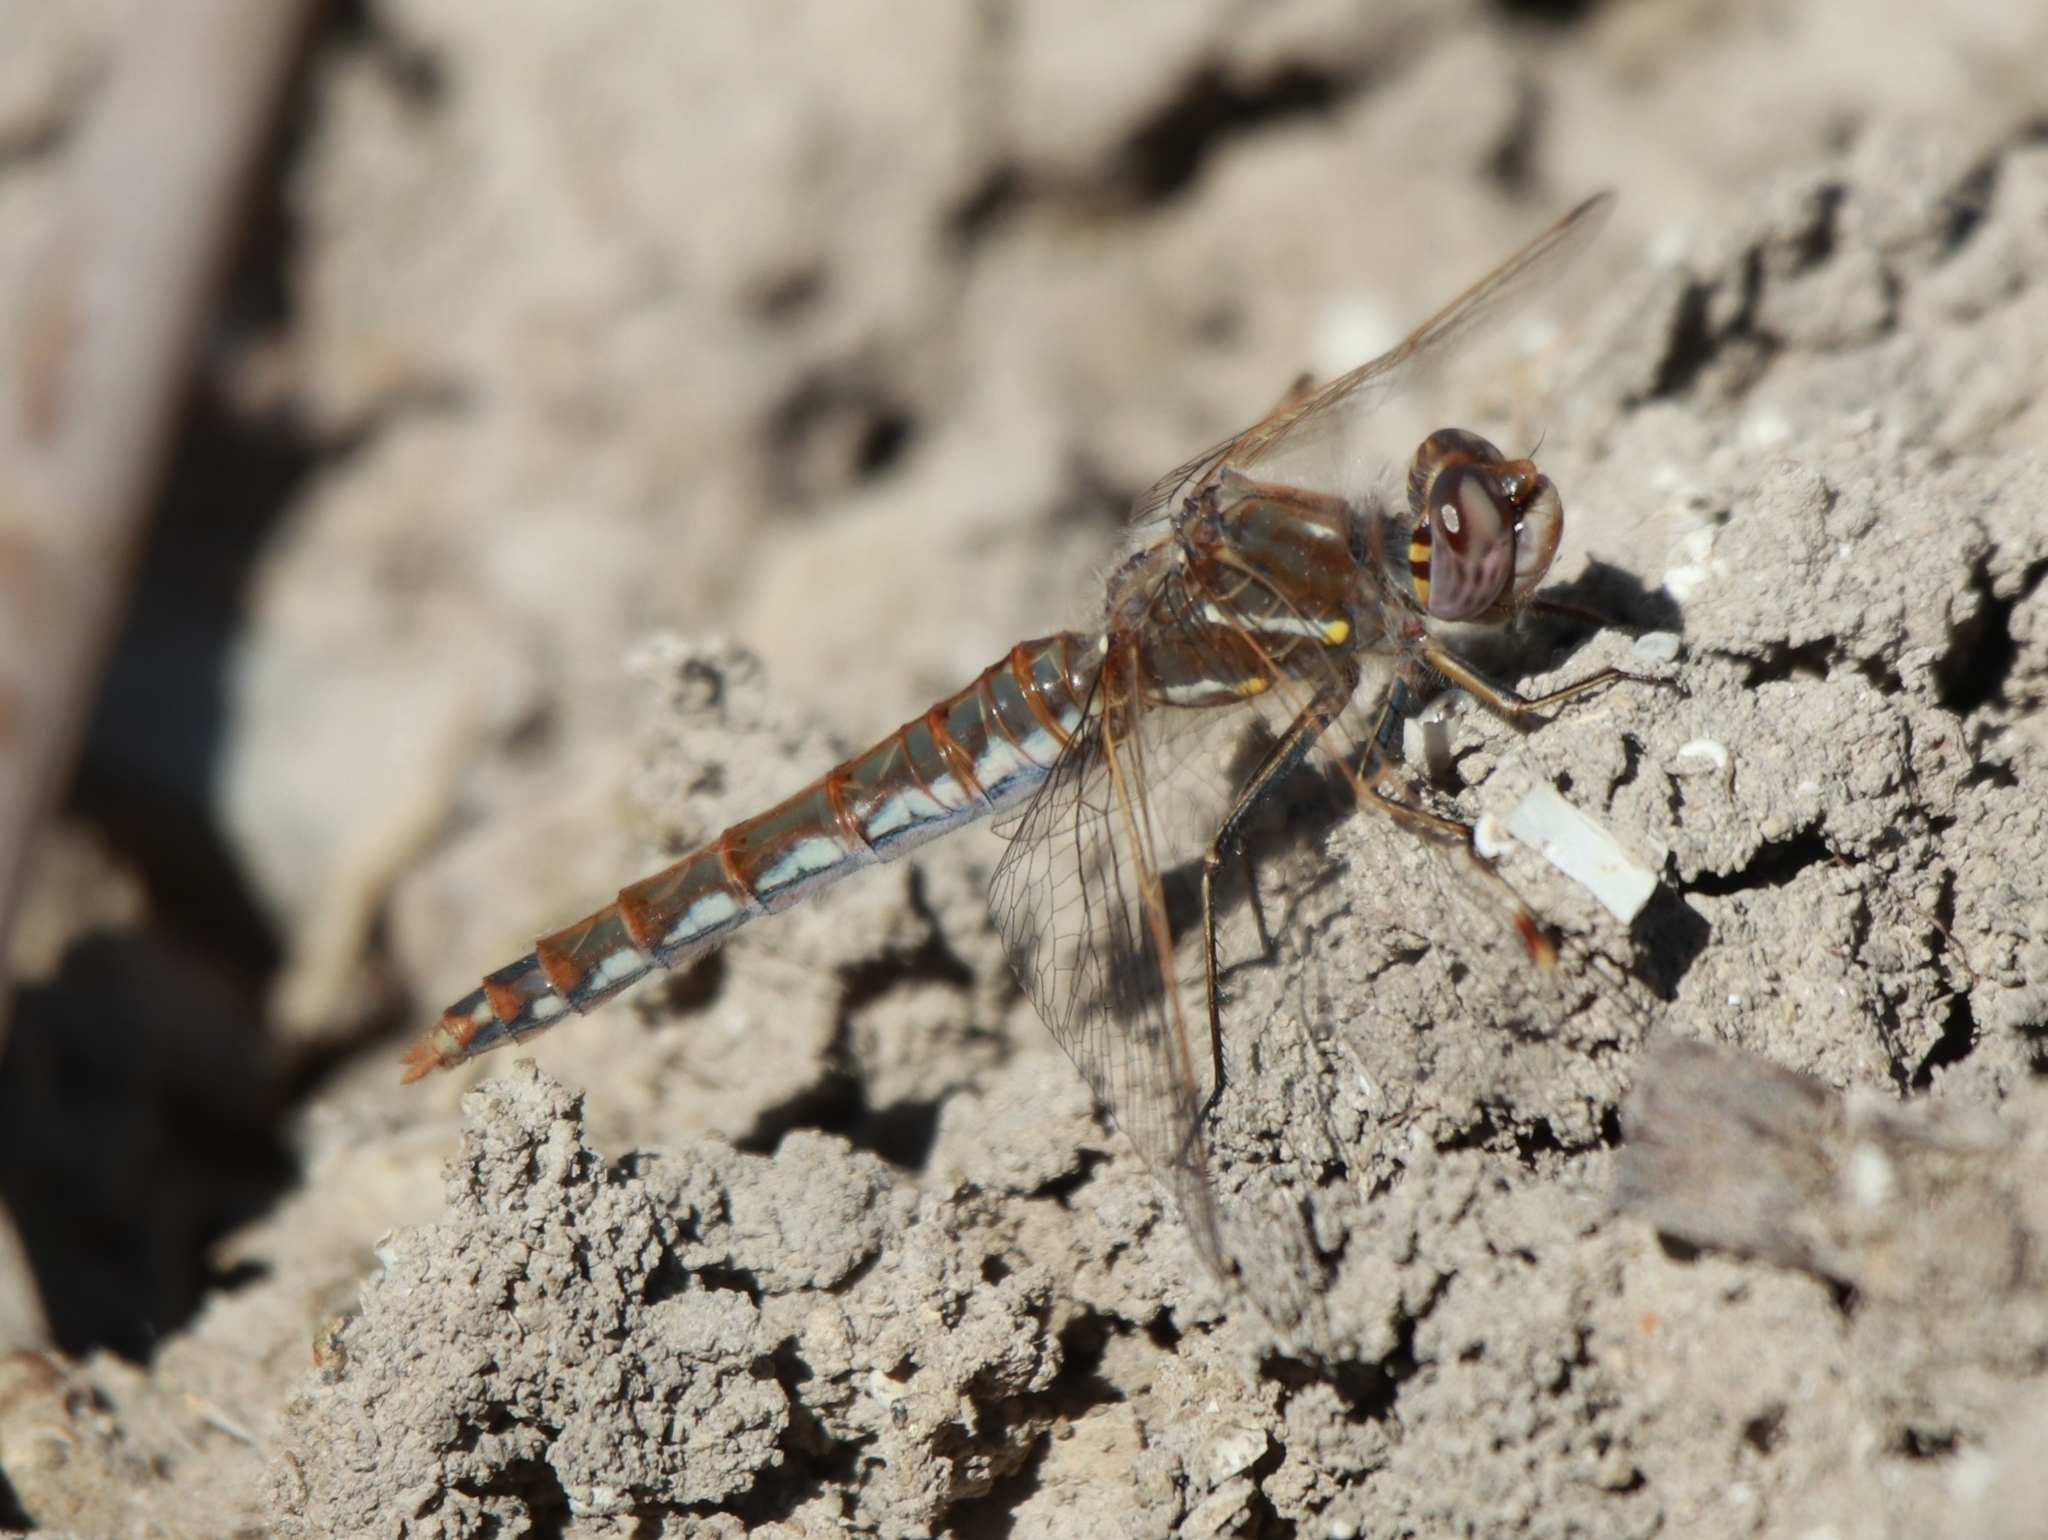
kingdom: Animalia
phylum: Arthropoda
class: Insecta
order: Odonata
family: Libellulidae
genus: Sympetrum
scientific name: Sympetrum corruptum
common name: Variegated meadowhawk
